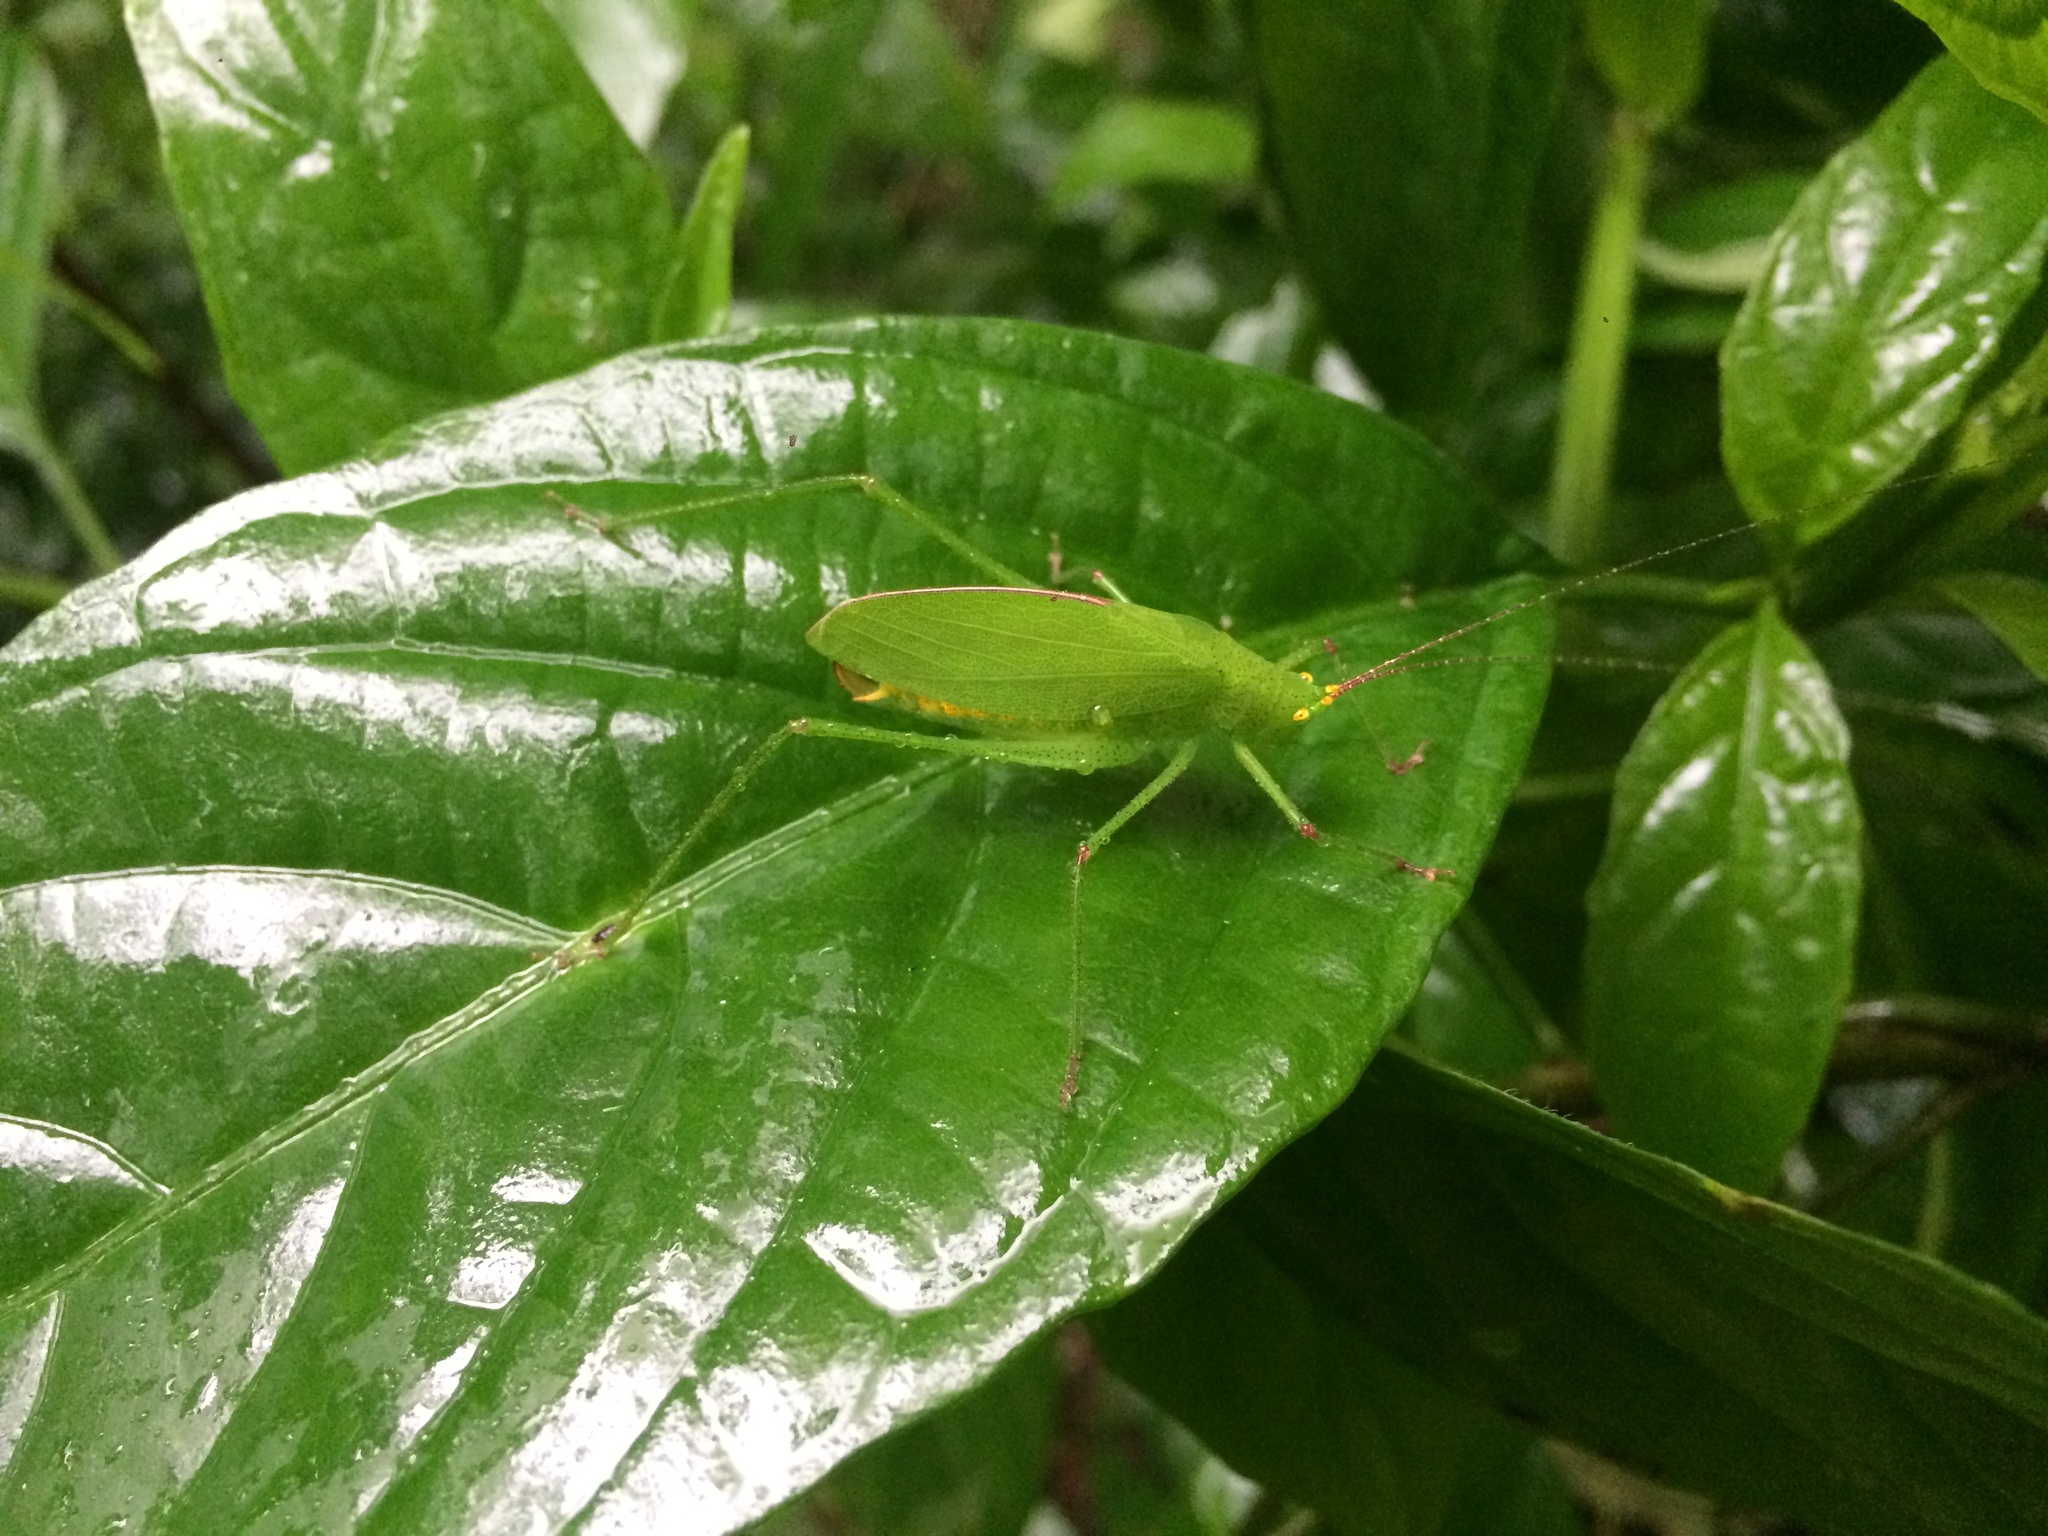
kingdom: Animalia
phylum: Arthropoda
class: Insecta
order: Orthoptera
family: Tettigoniidae
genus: Hyperphrona
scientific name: Hyperphrona signata
